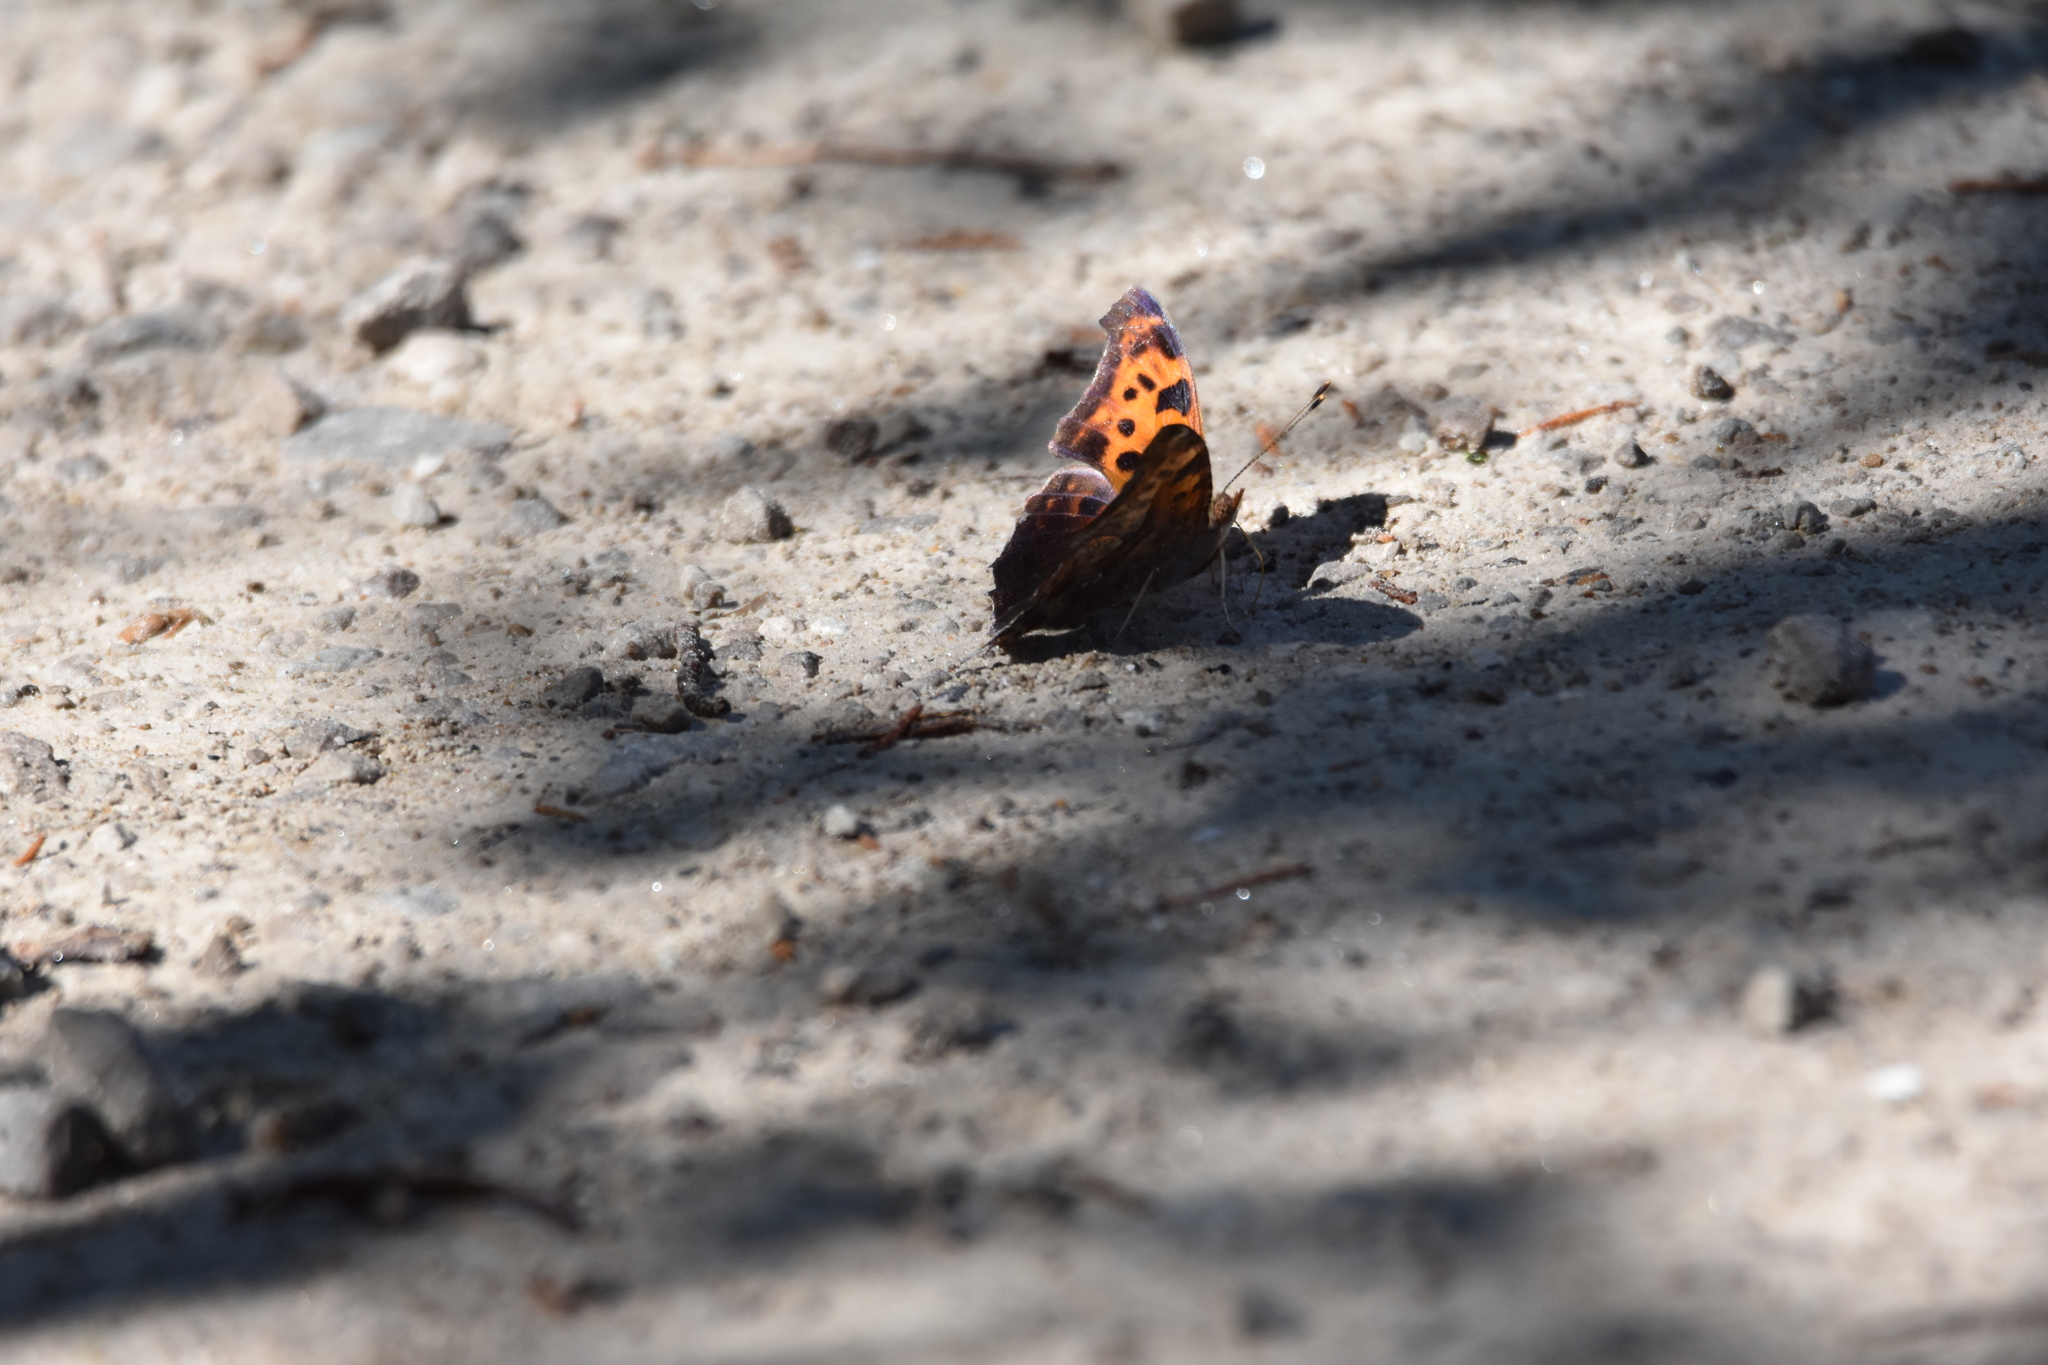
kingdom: Animalia
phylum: Arthropoda
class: Insecta
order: Lepidoptera
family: Nymphalidae
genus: Polygonia
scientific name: Polygonia interrogationis
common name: Question mark
